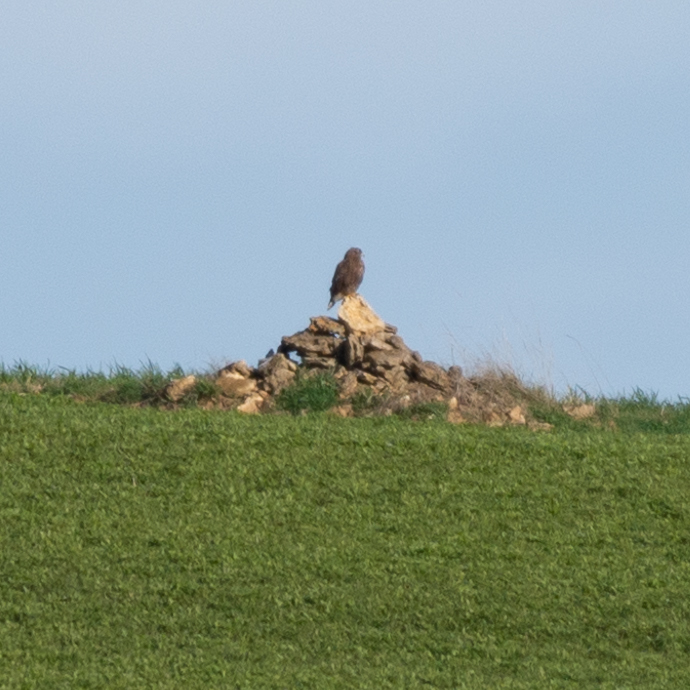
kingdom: Animalia
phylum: Chordata
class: Aves
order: Accipitriformes
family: Accipitridae
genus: Buteo
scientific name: Buteo buteo
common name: Common buzzard
